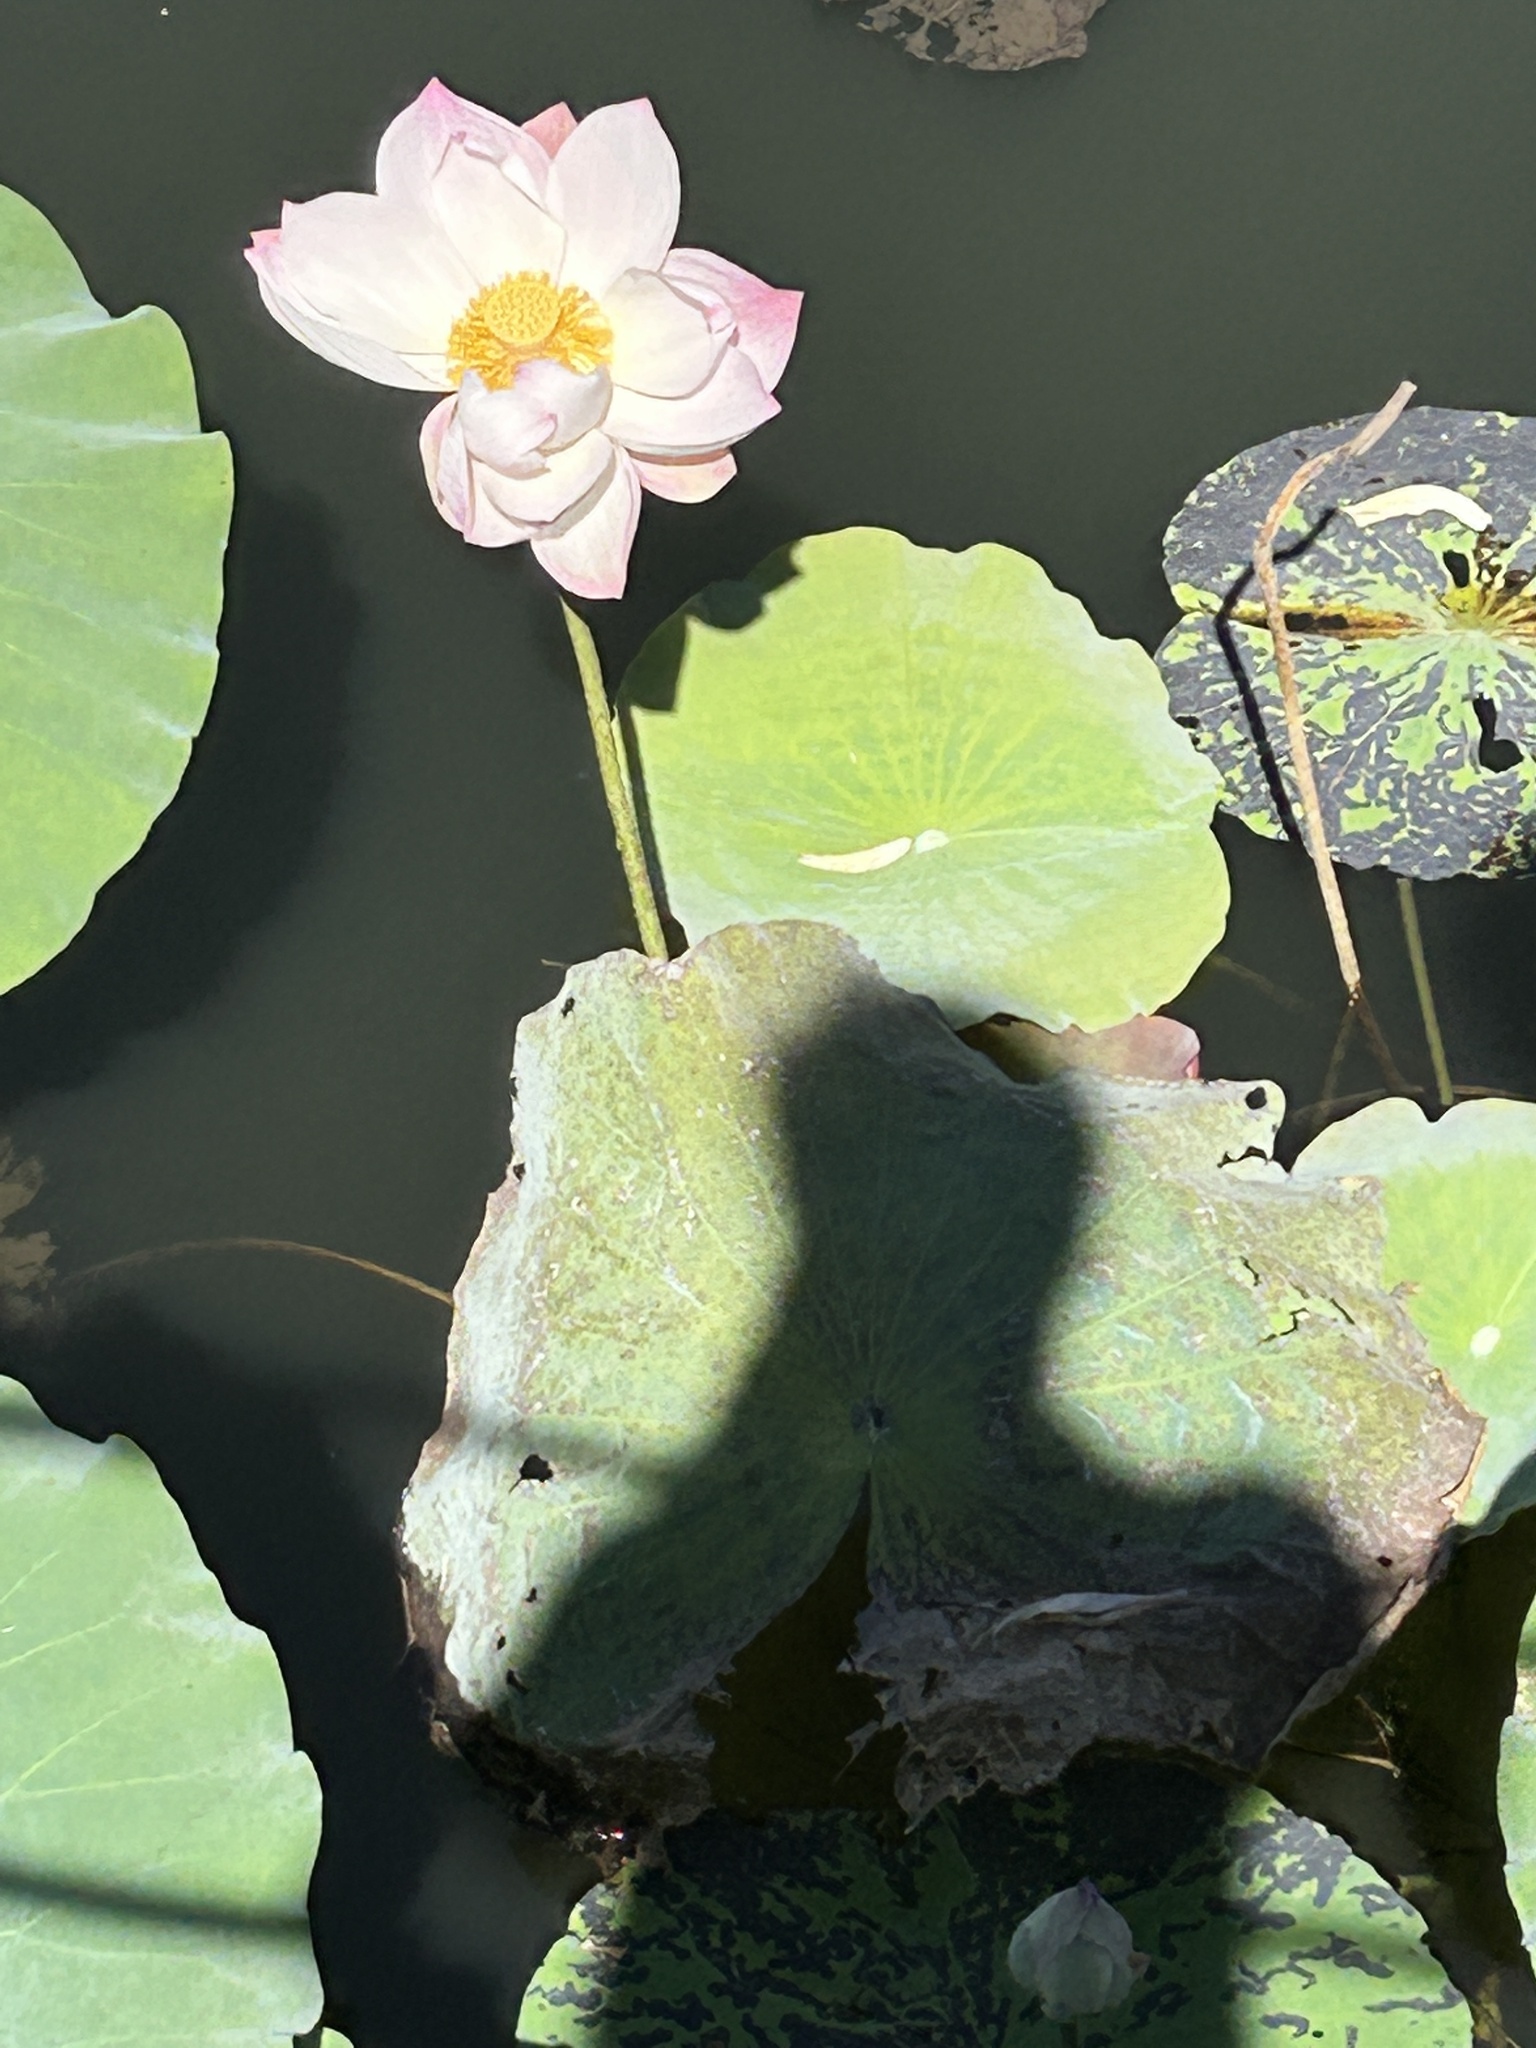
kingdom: Plantae
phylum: Tracheophyta
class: Magnoliopsida
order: Proteales
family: Nelumbonaceae
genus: Nelumbo
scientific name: Nelumbo nucifera
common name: Sacred lotus
